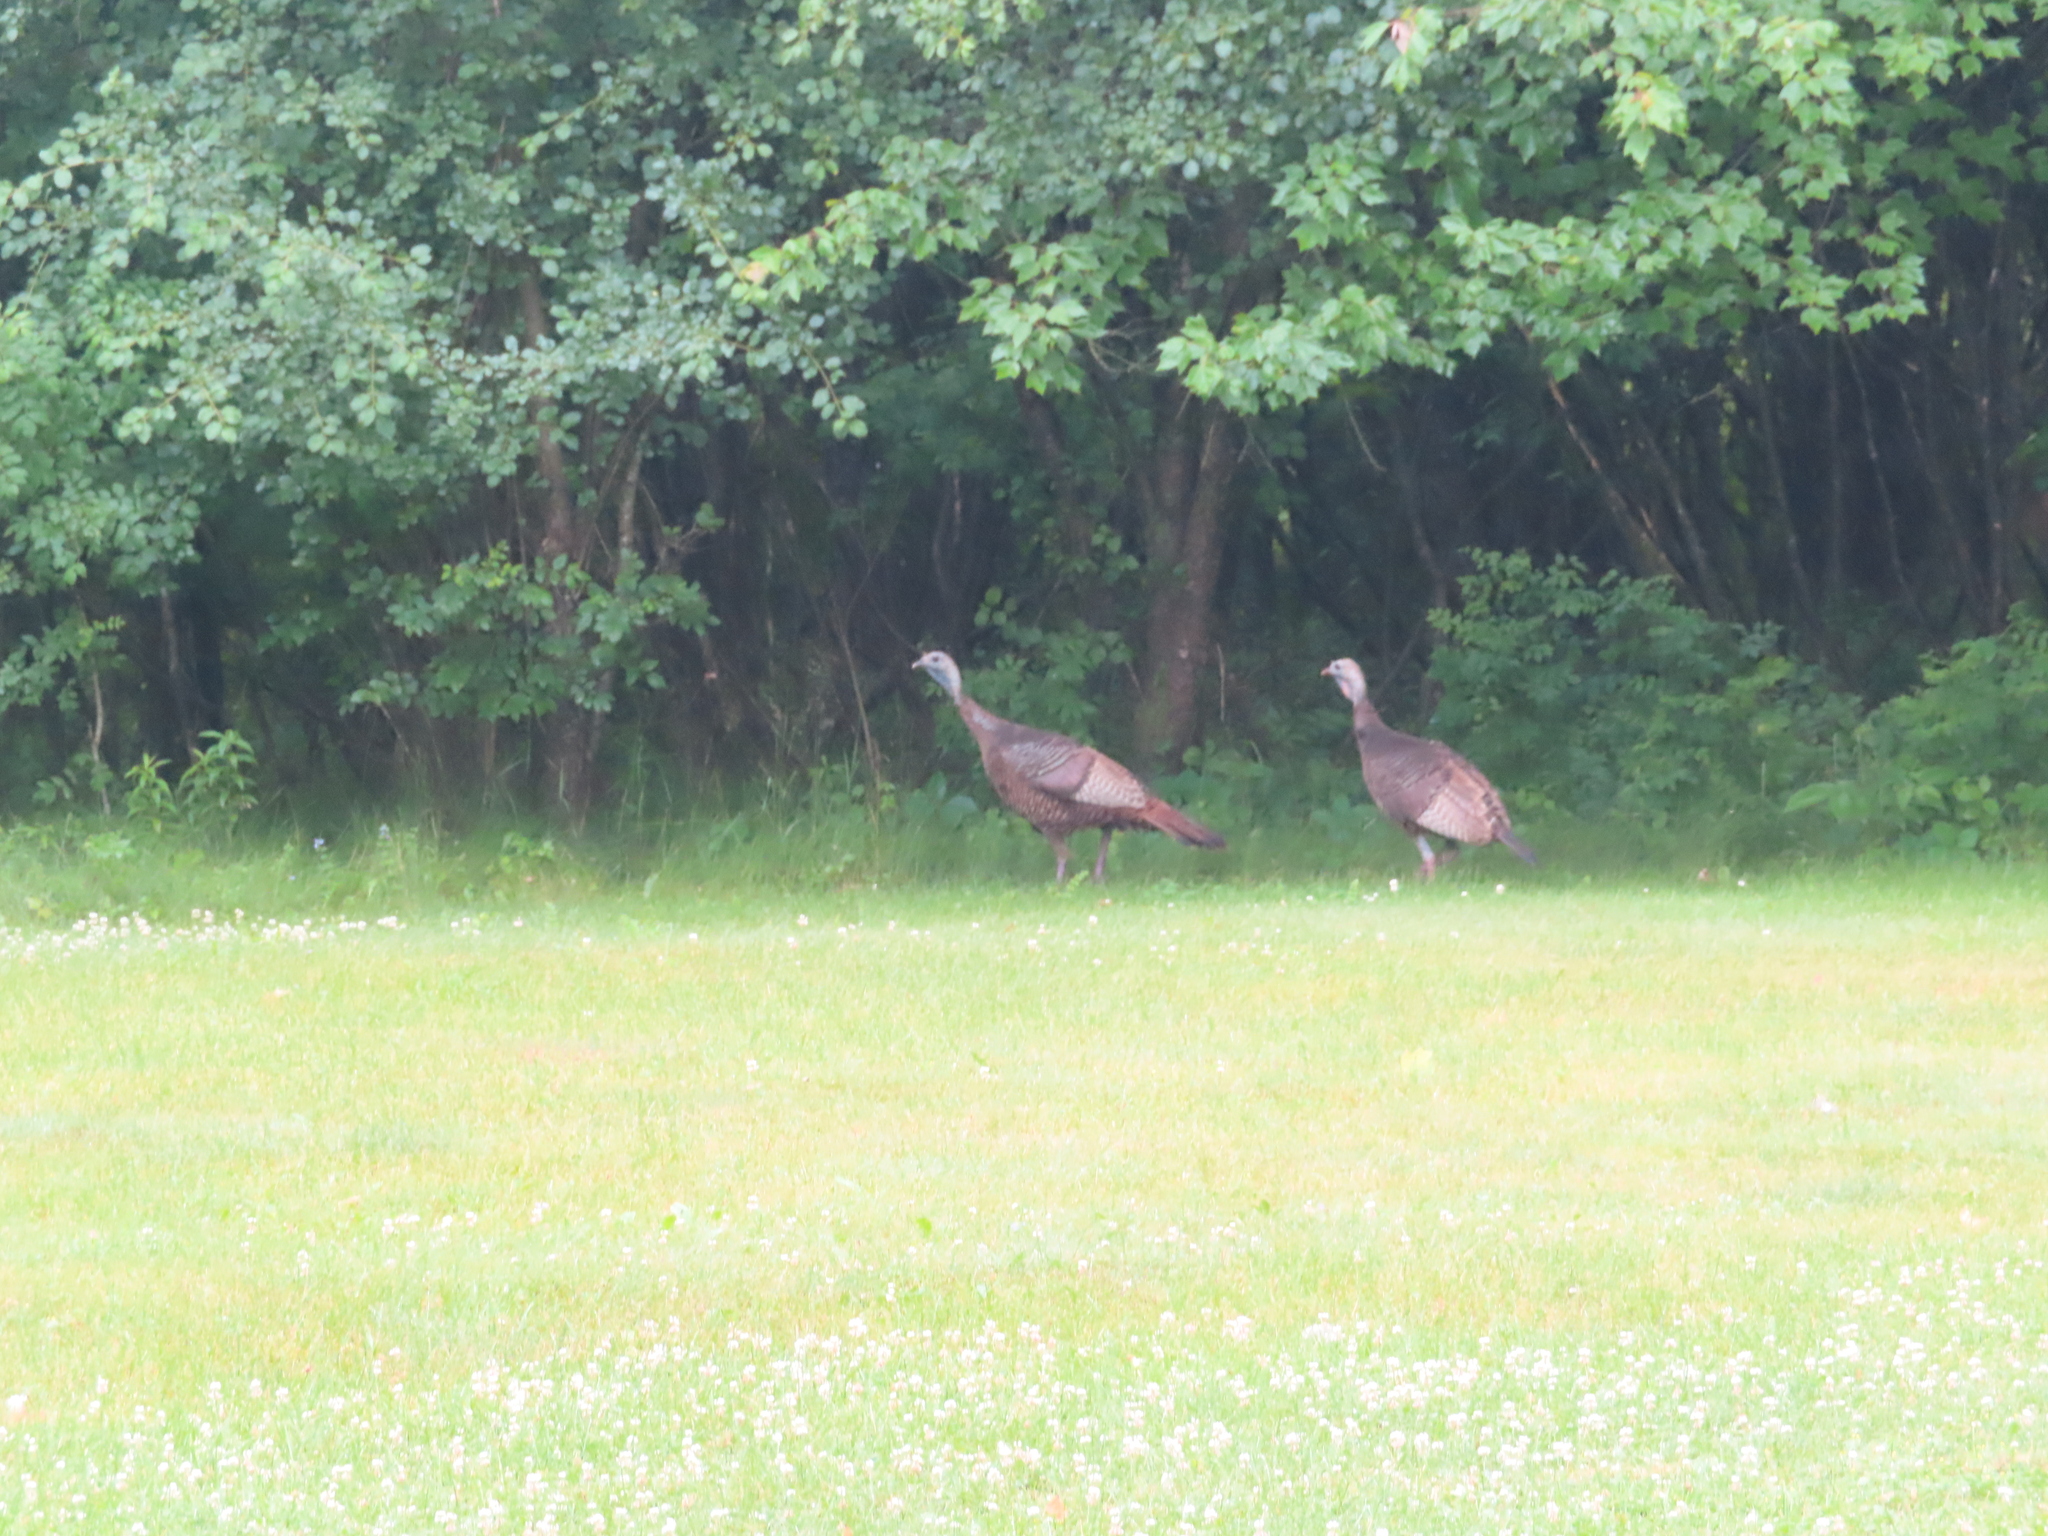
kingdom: Animalia
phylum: Chordata
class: Aves
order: Galliformes
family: Phasianidae
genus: Meleagris
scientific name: Meleagris gallopavo
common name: Wild turkey
